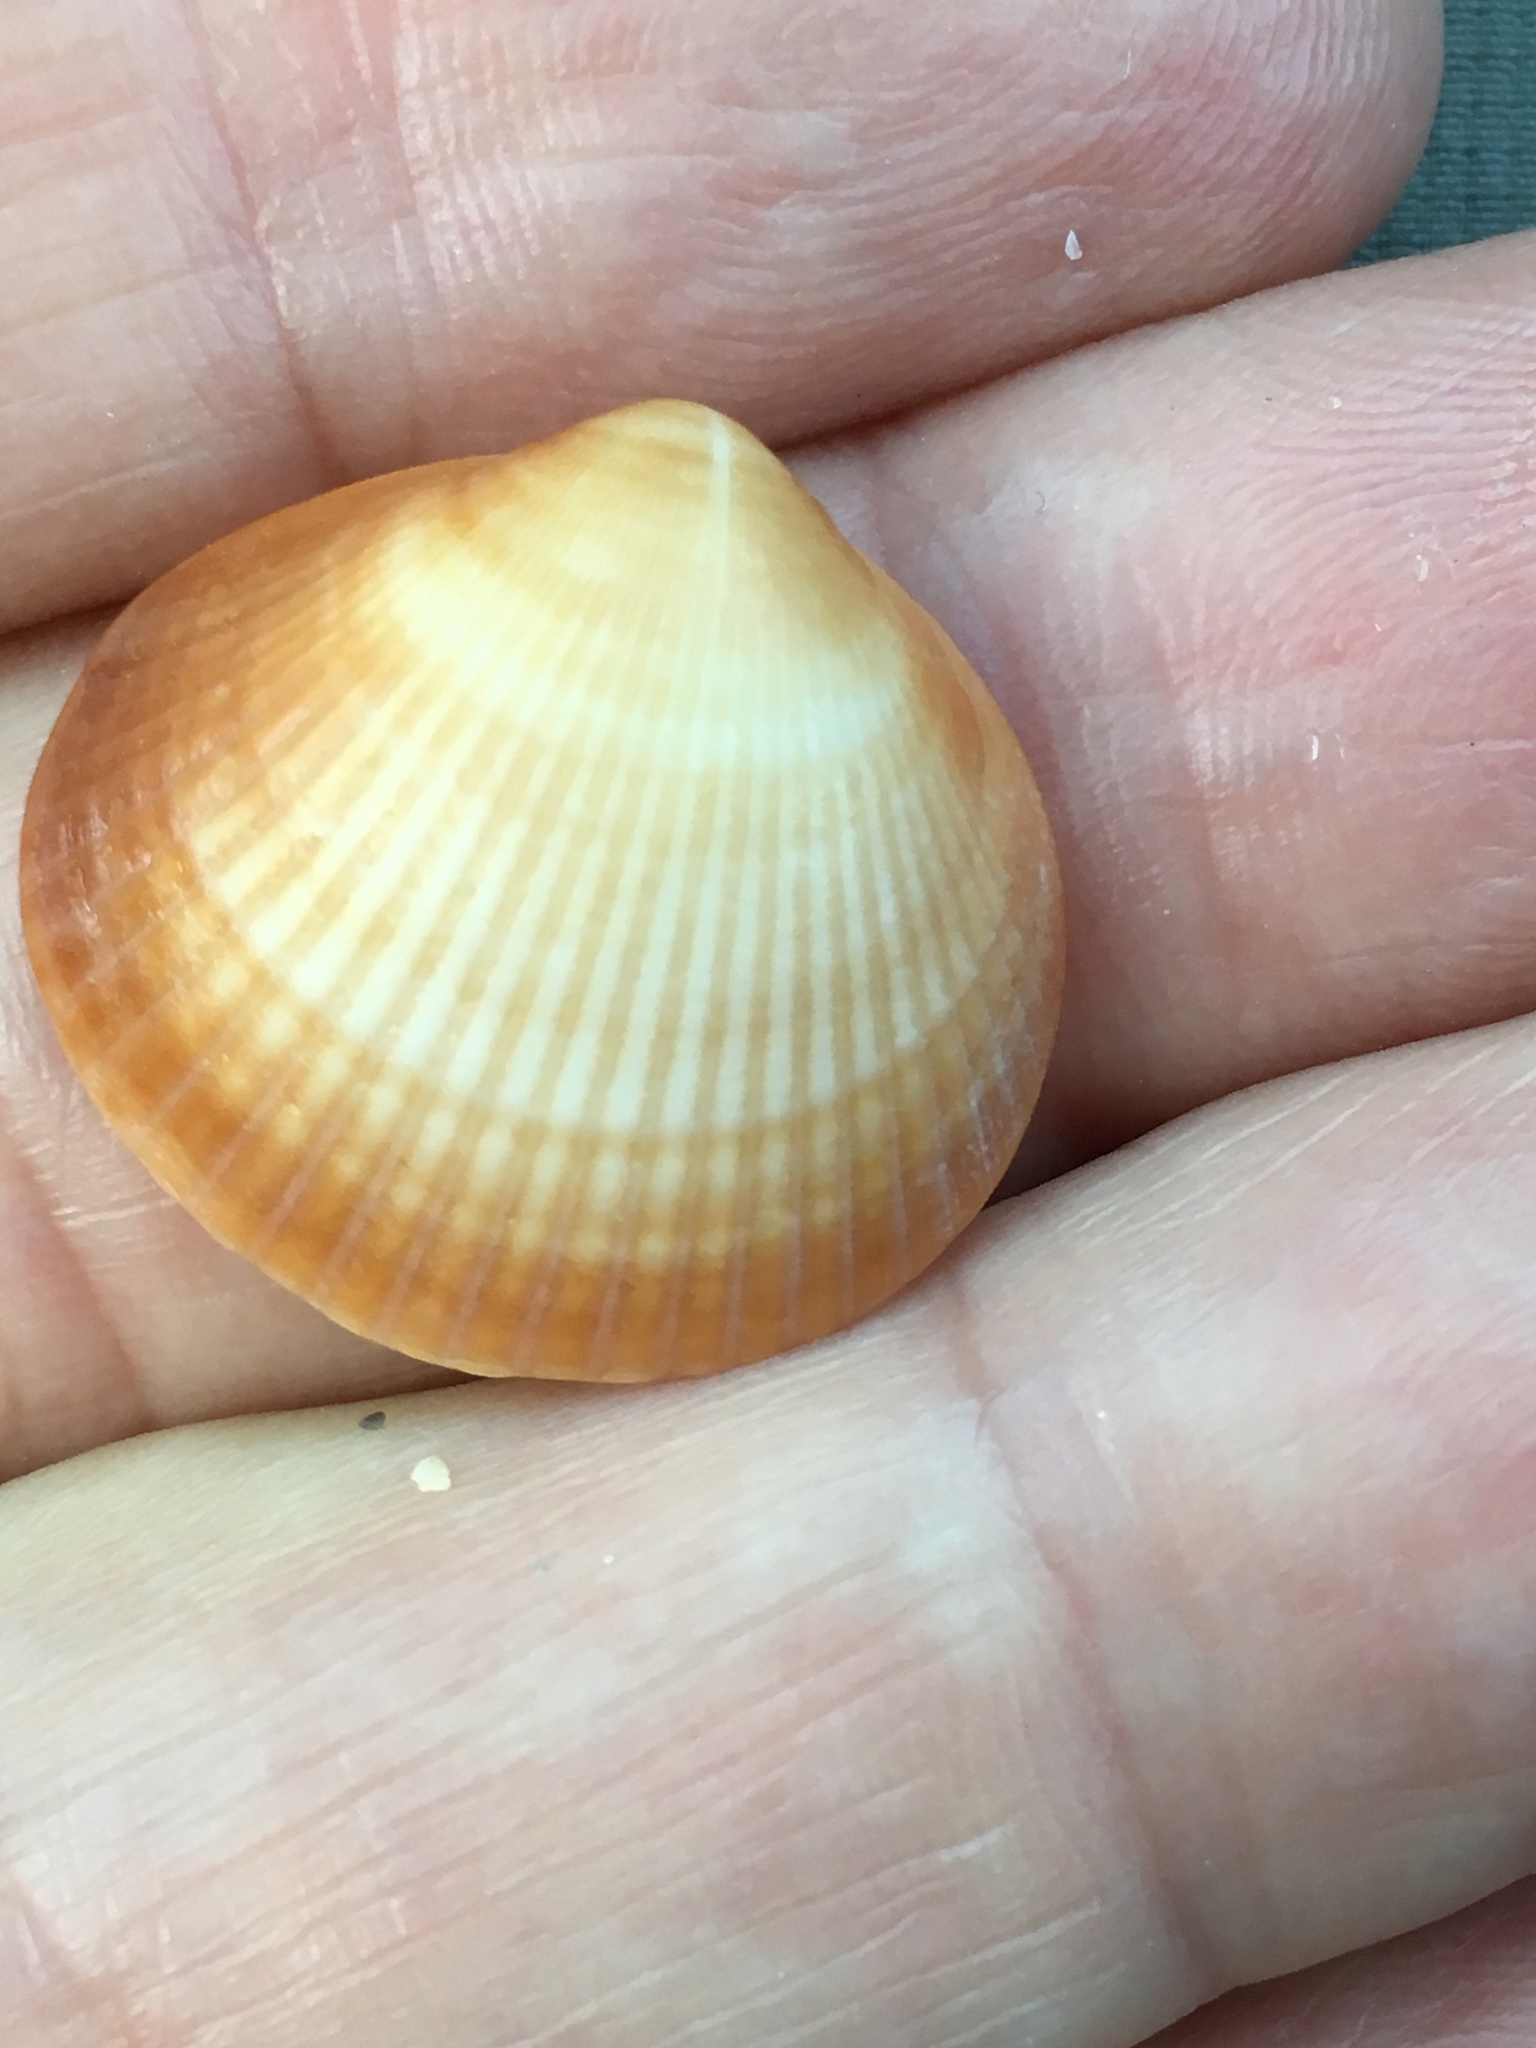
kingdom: Animalia
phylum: Mollusca
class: Bivalvia
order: Arcida
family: Glycymerididae
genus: Glycymeris
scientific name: Glycymeris spectralis
